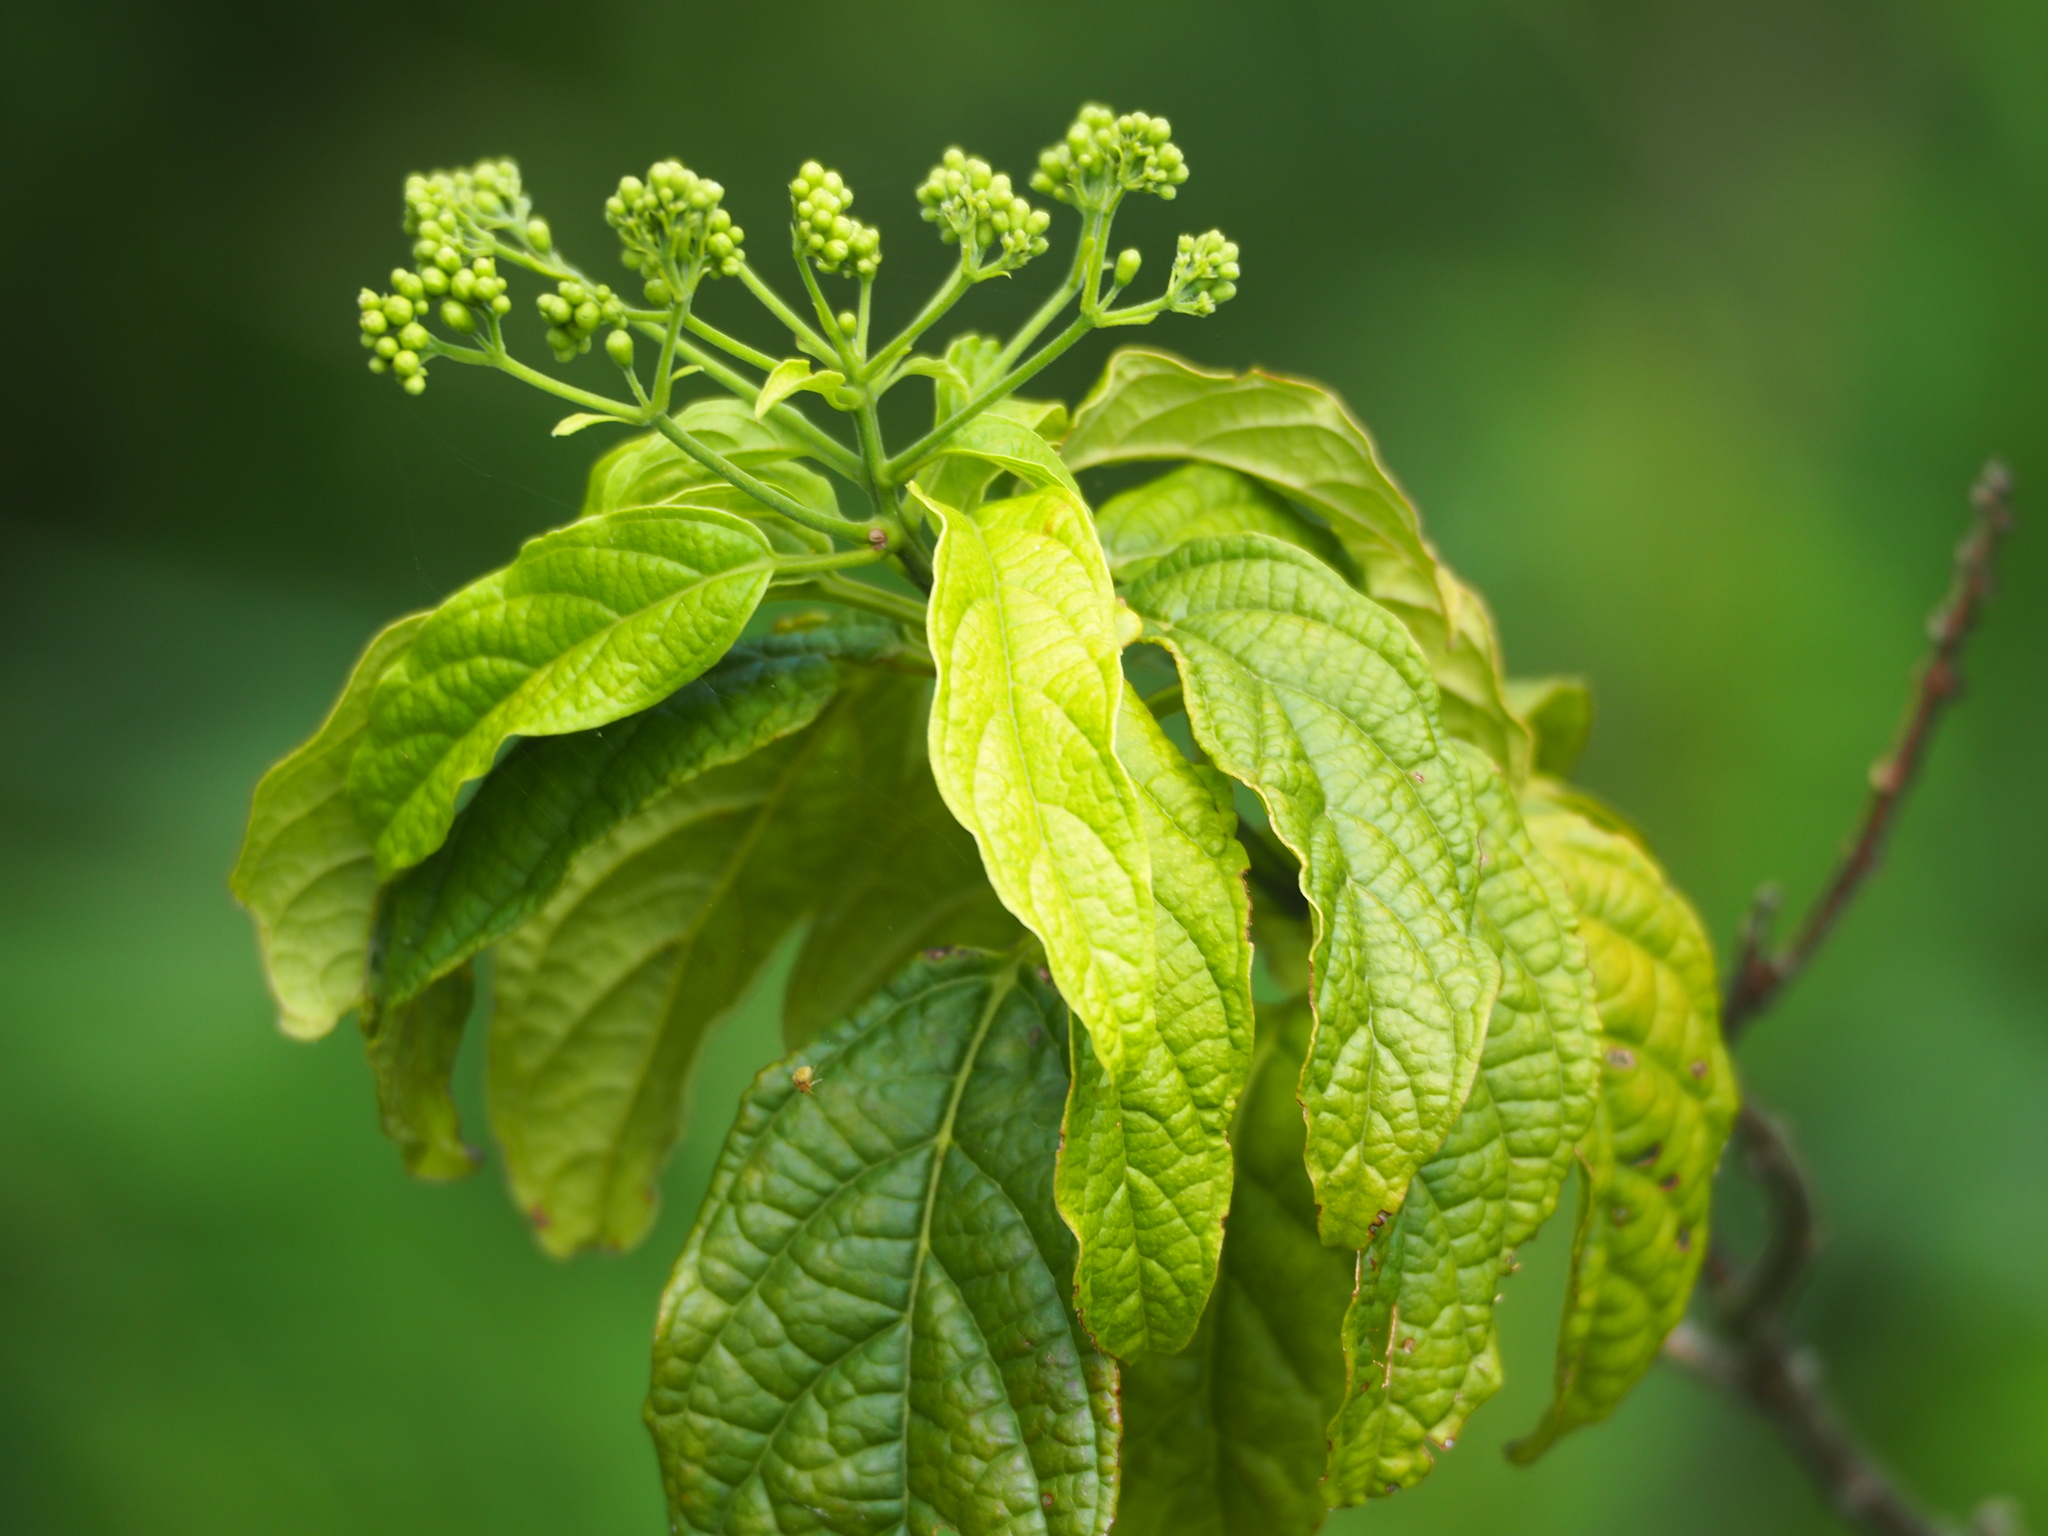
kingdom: Plantae
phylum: Tracheophyta
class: Magnoliopsida
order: Lamiales
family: Lamiaceae
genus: Clerodendrum
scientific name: Clerodendrum cyrtophyllum
